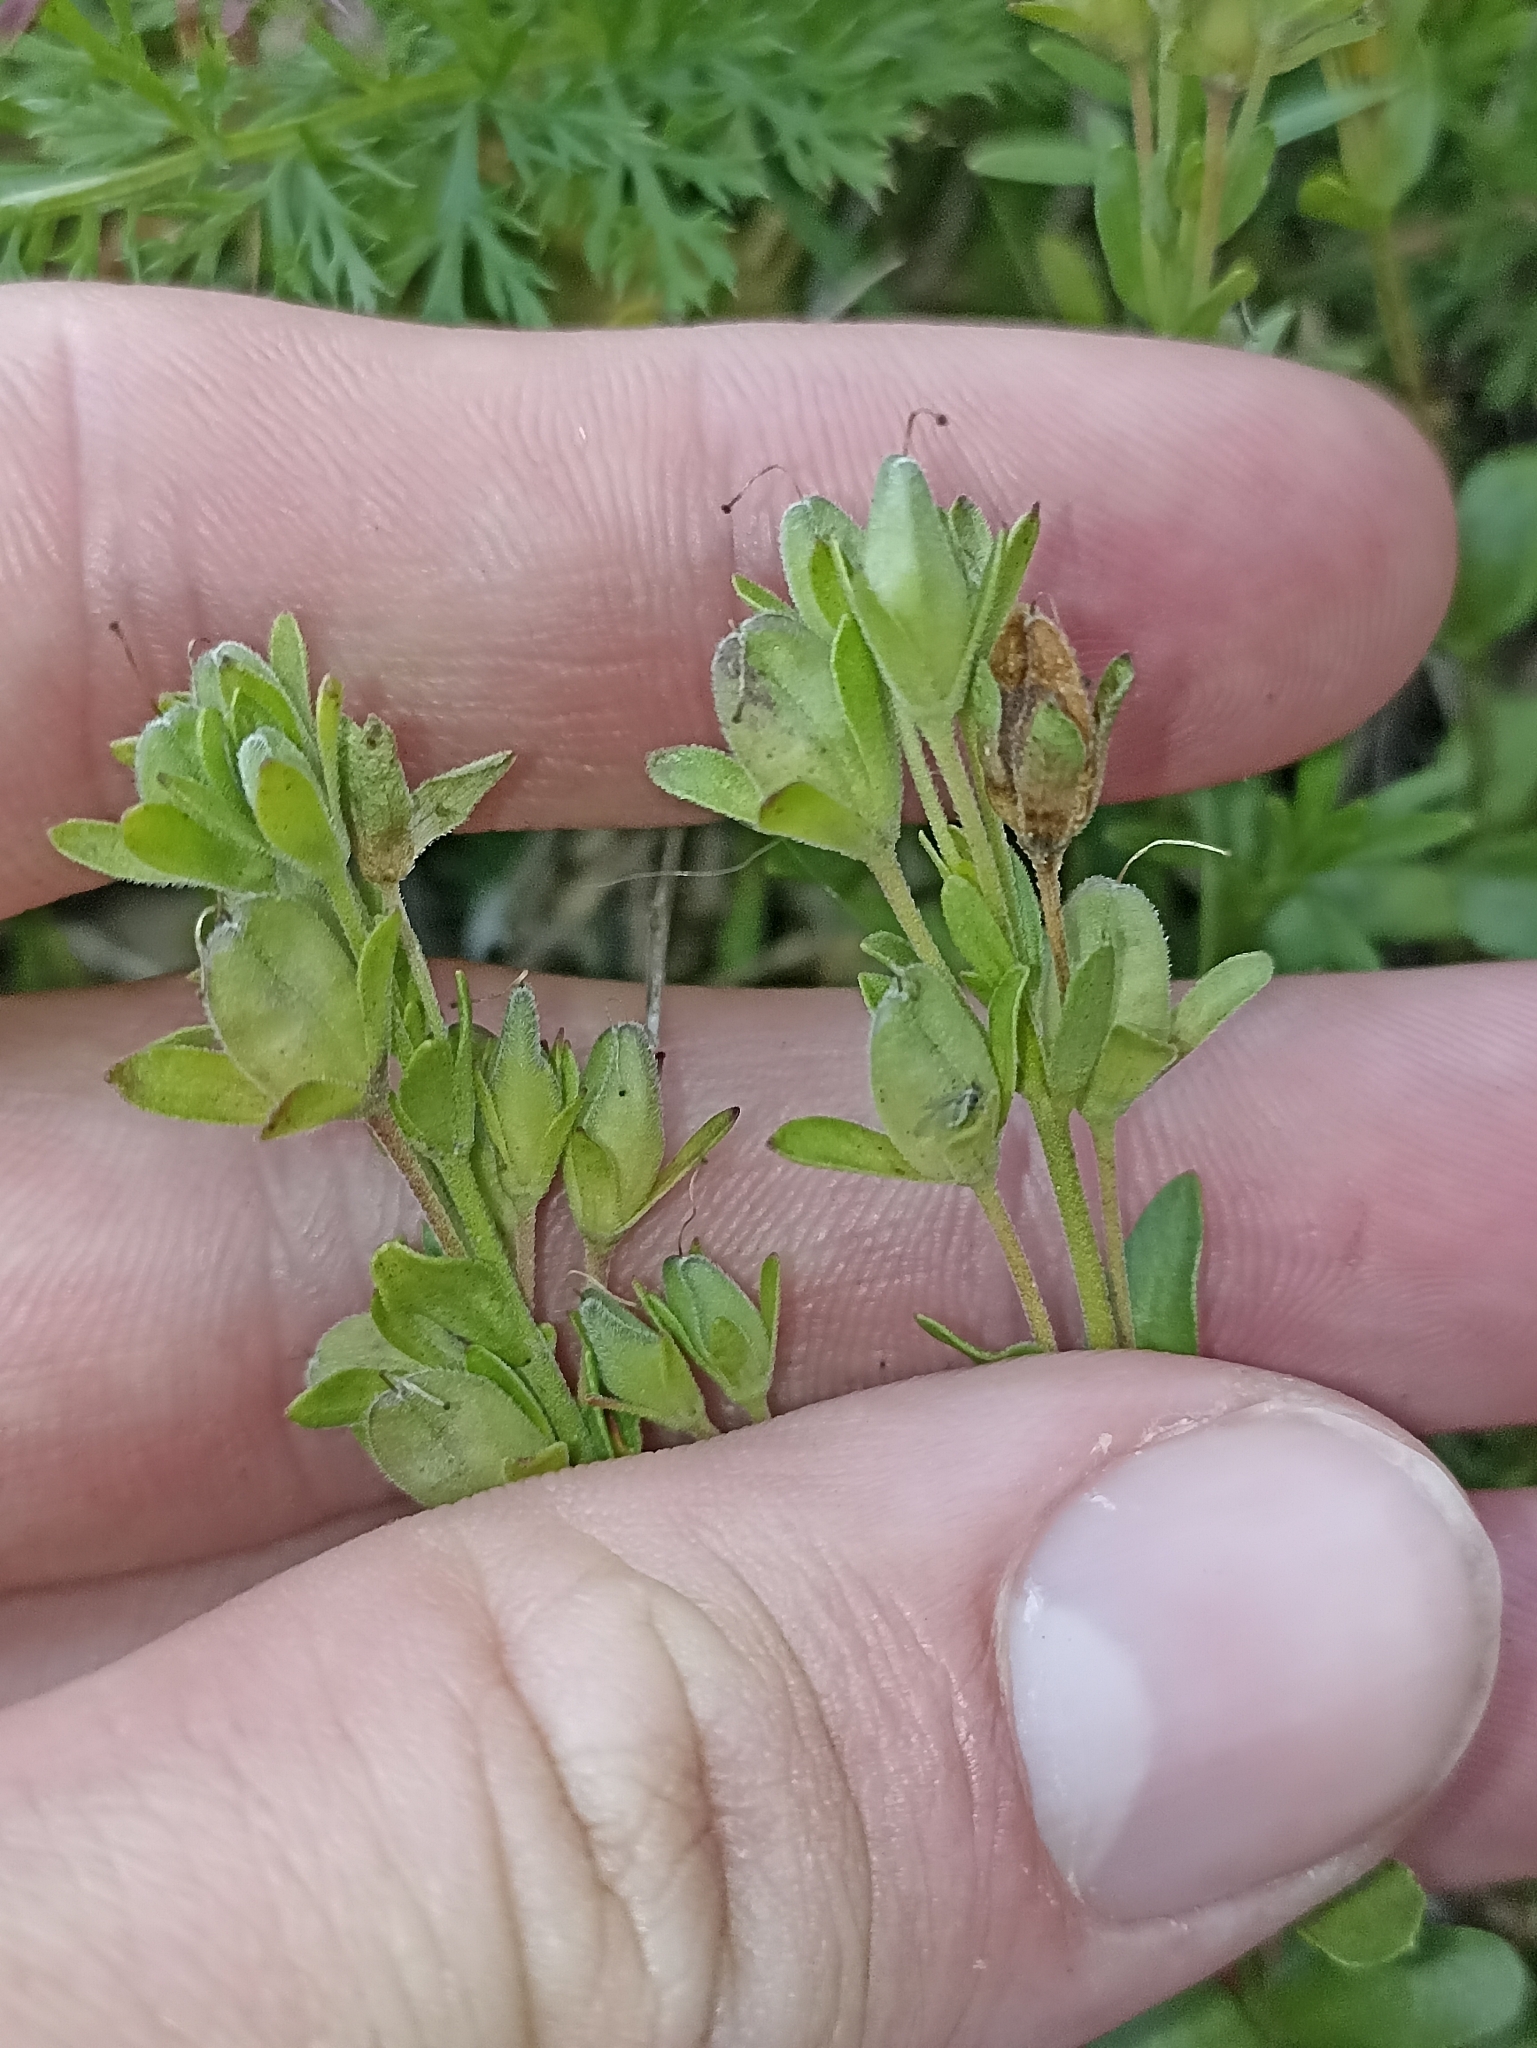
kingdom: Plantae
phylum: Tracheophyta
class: Magnoliopsida
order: Lamiales
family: Plantaginaceae
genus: Veronica
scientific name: Veronica fruticans
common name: Rock speedwell
